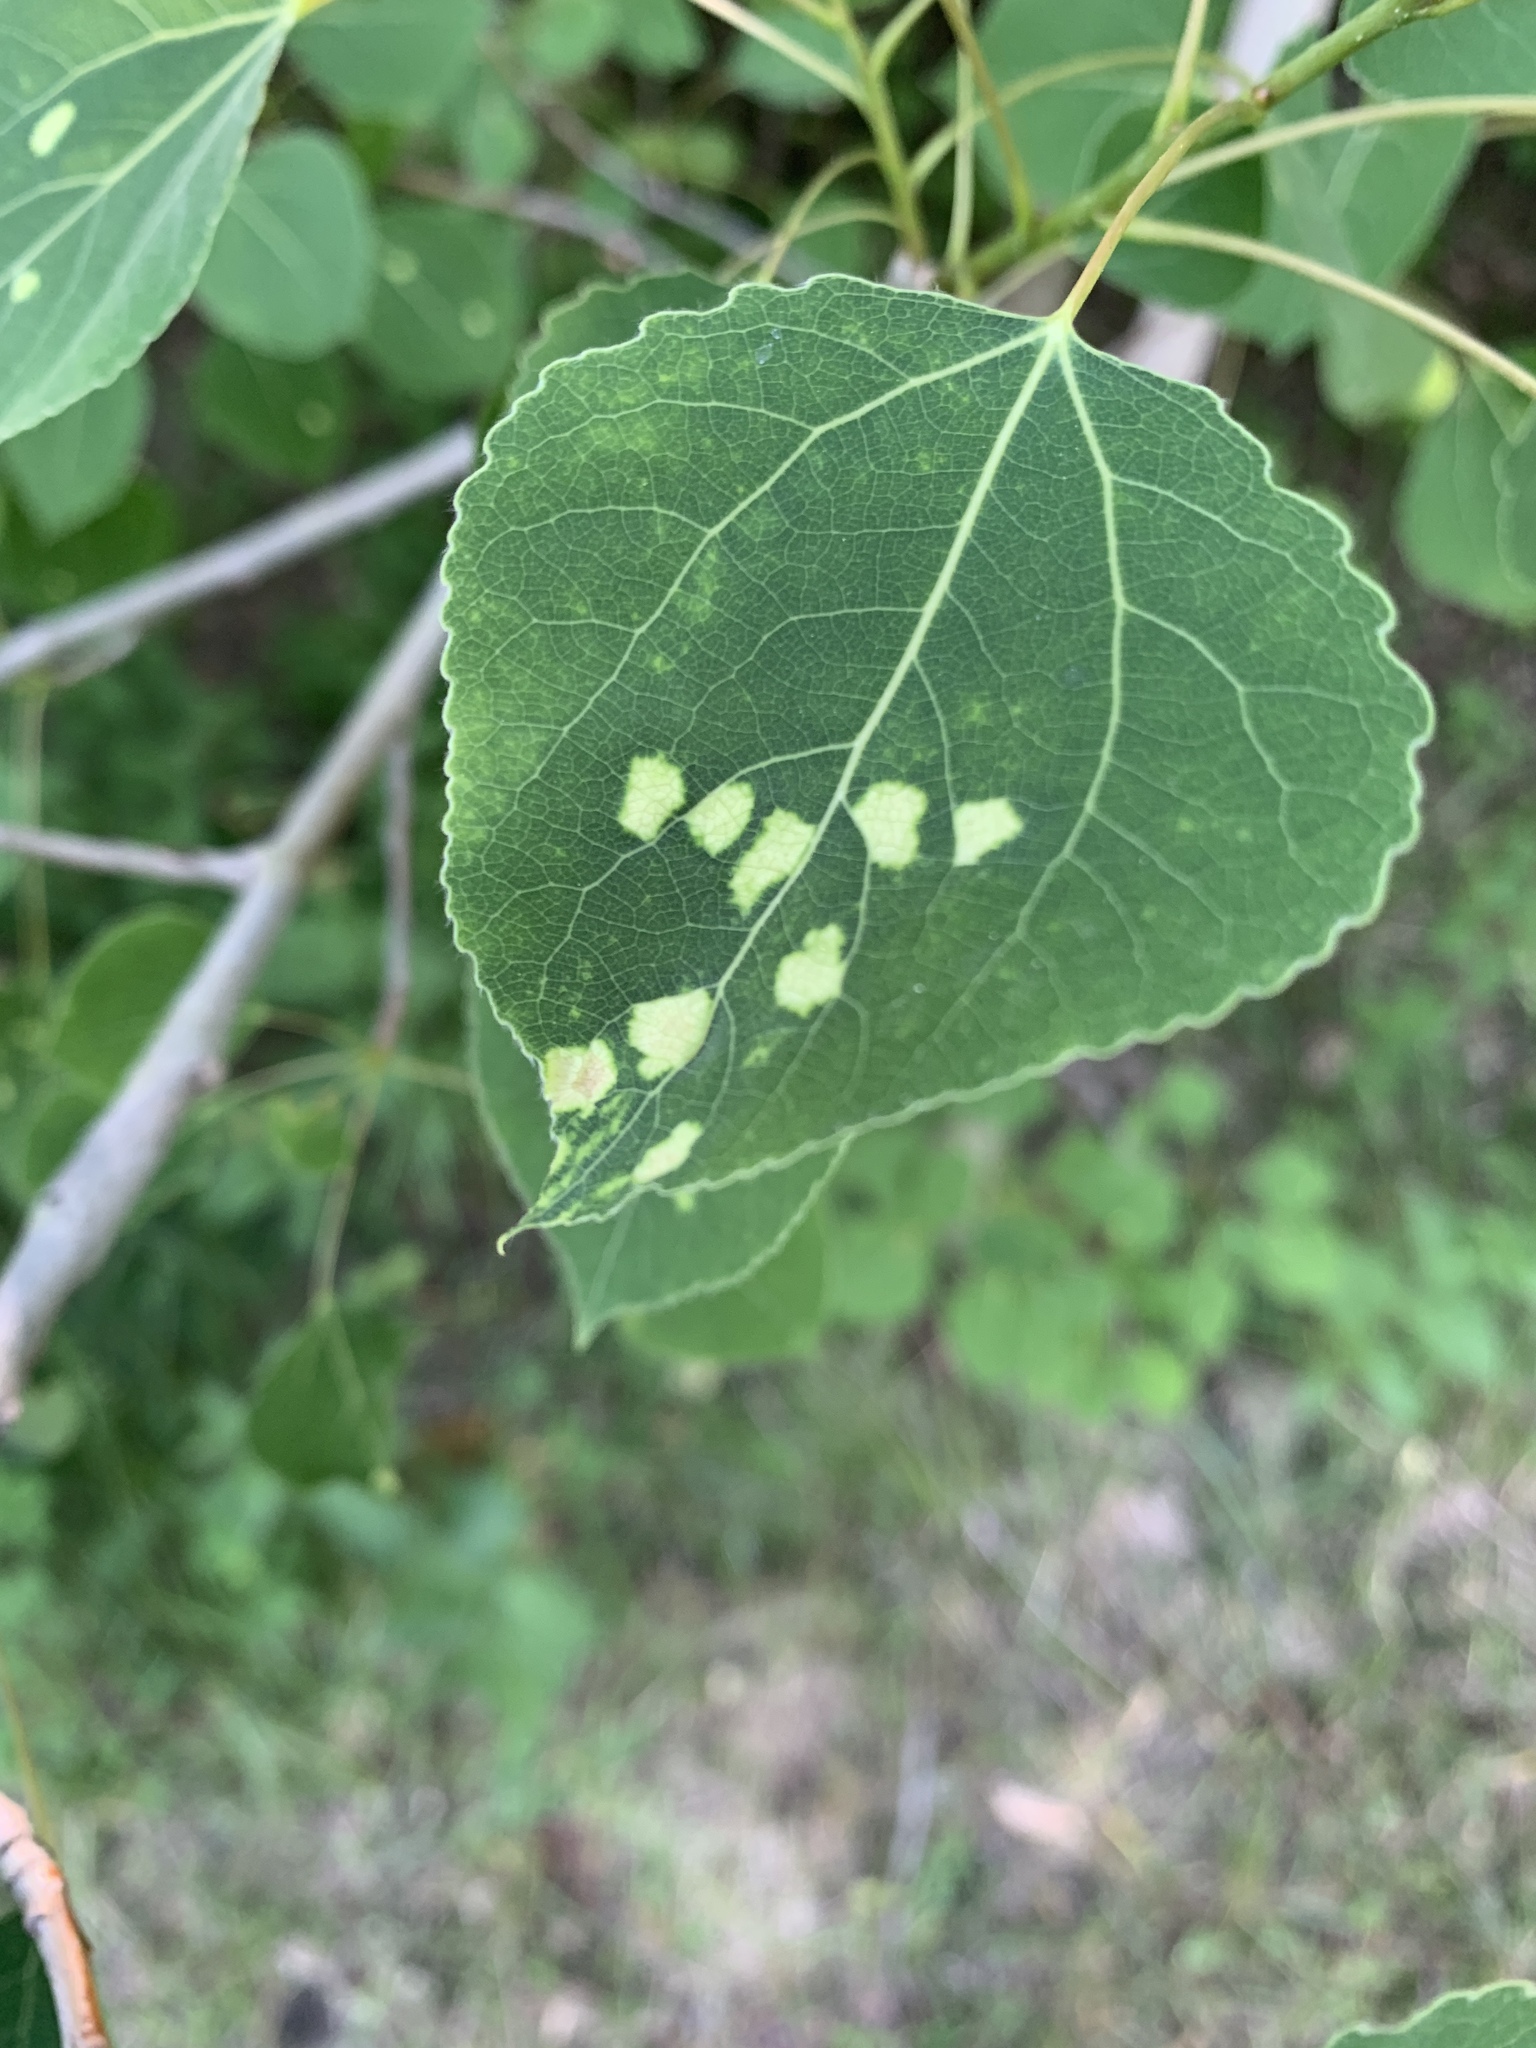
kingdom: Animalia
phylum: Arthropoda
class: Arachnida
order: Trombidiformes
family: Eriophyidae
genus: Phyllocoptes
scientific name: Phyllocoptes
